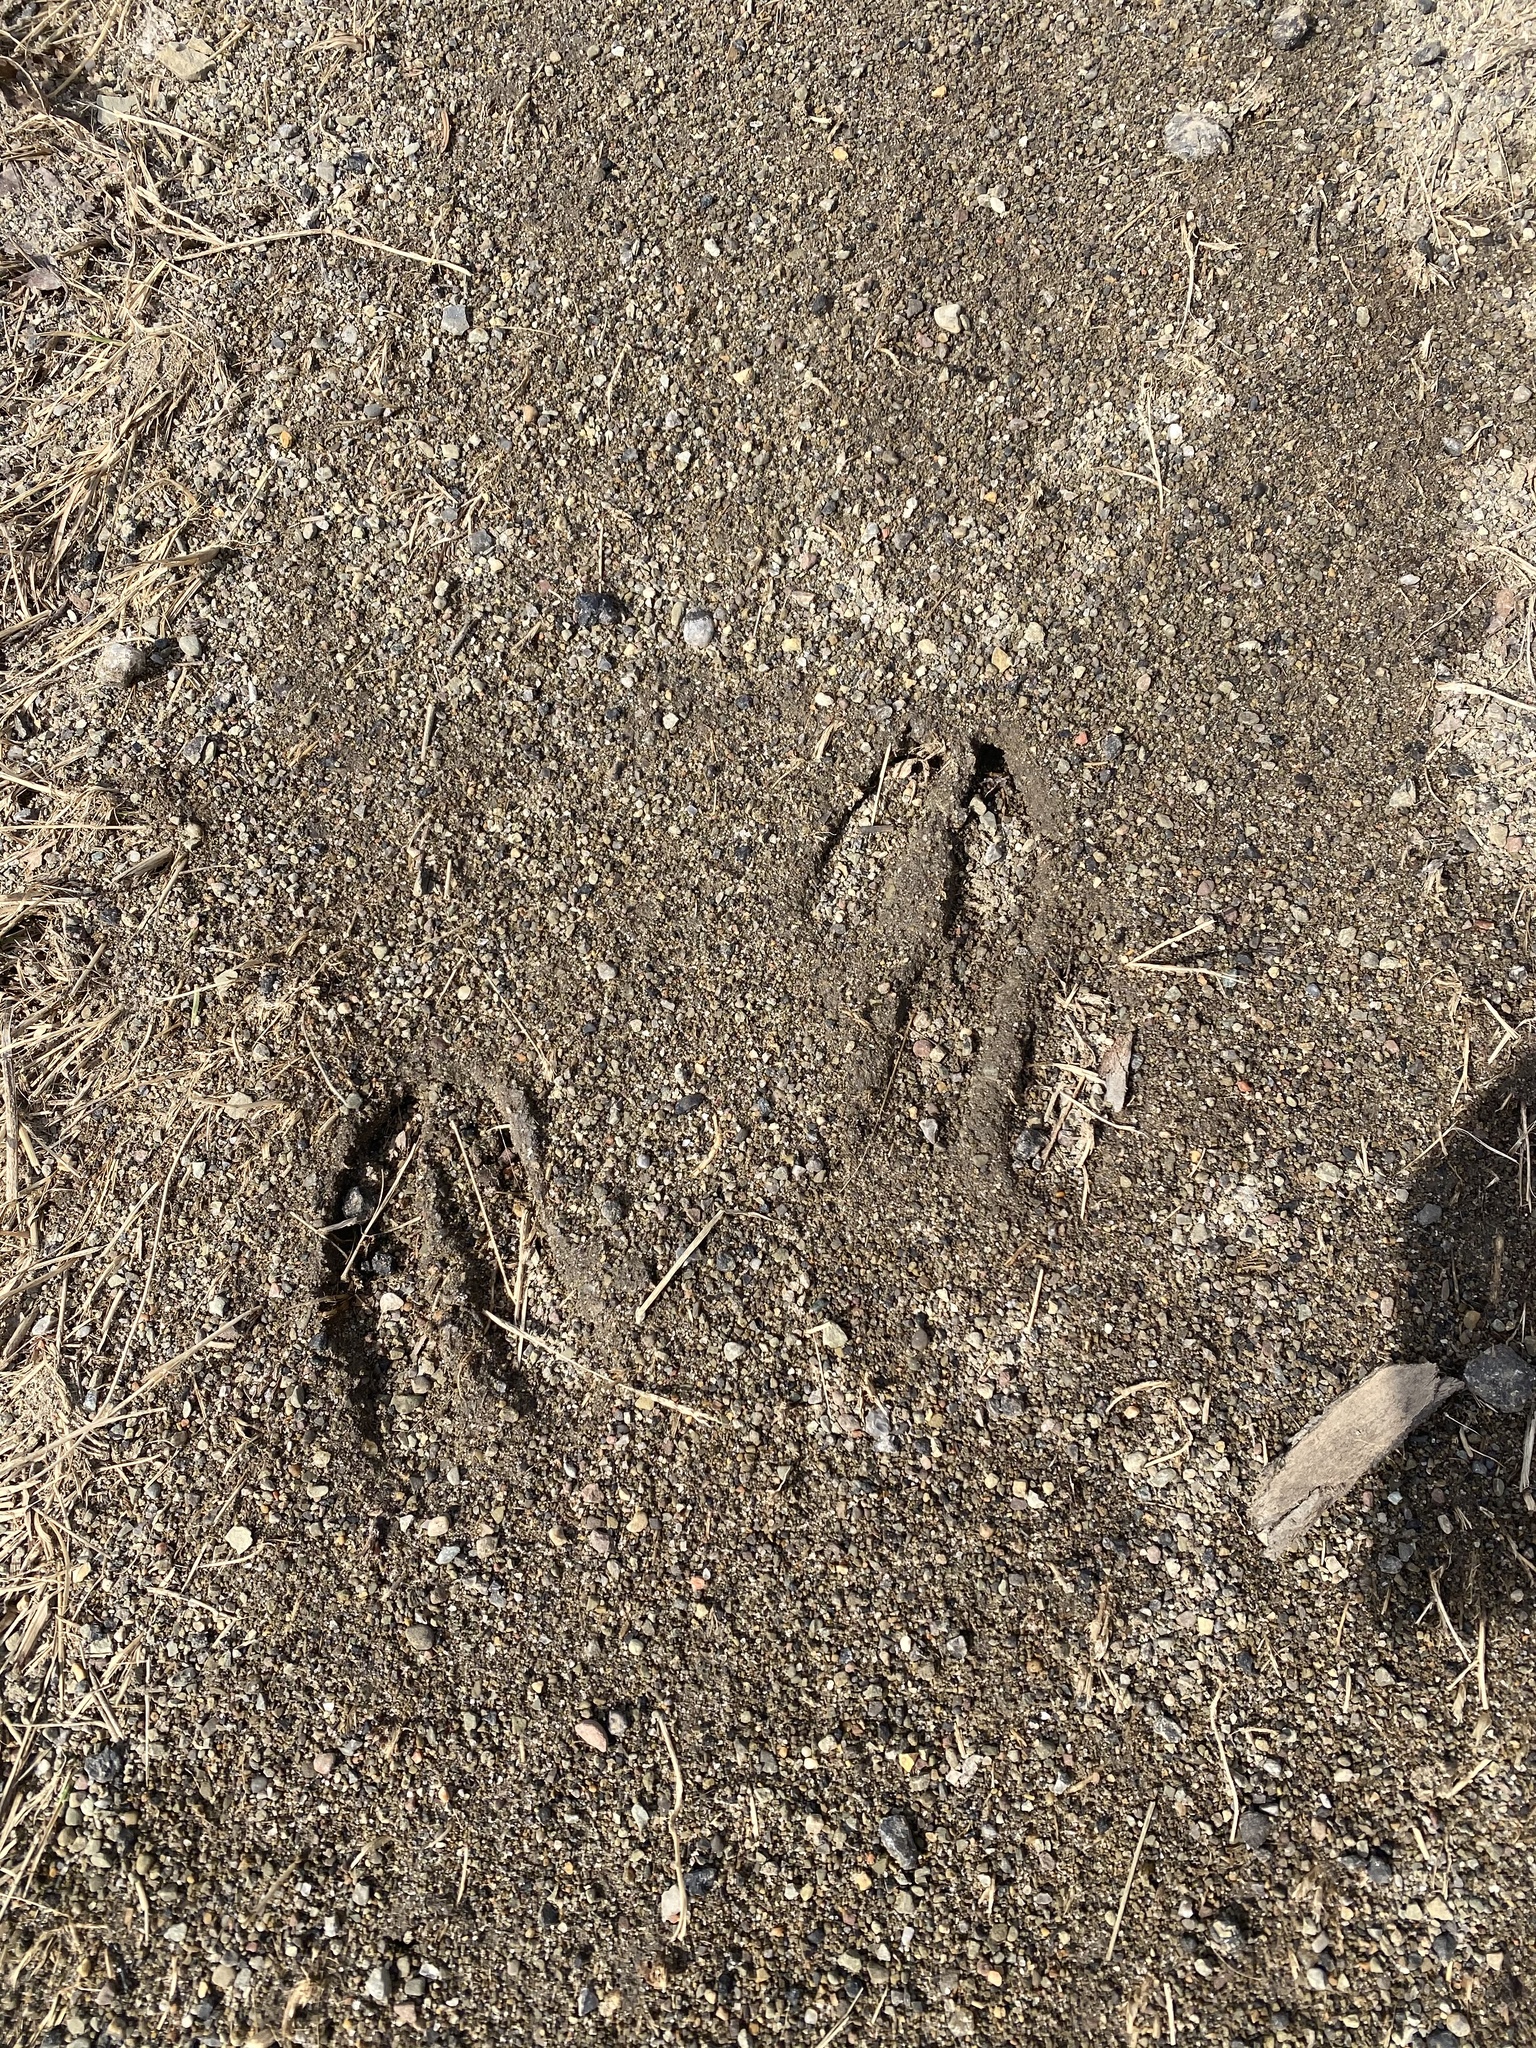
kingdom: Animalia
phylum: Chordata
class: Mammalia
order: Artiodactyla
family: Cervidae
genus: Odocoileus
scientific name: Odocoileus virginianus
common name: White-tailed deer
